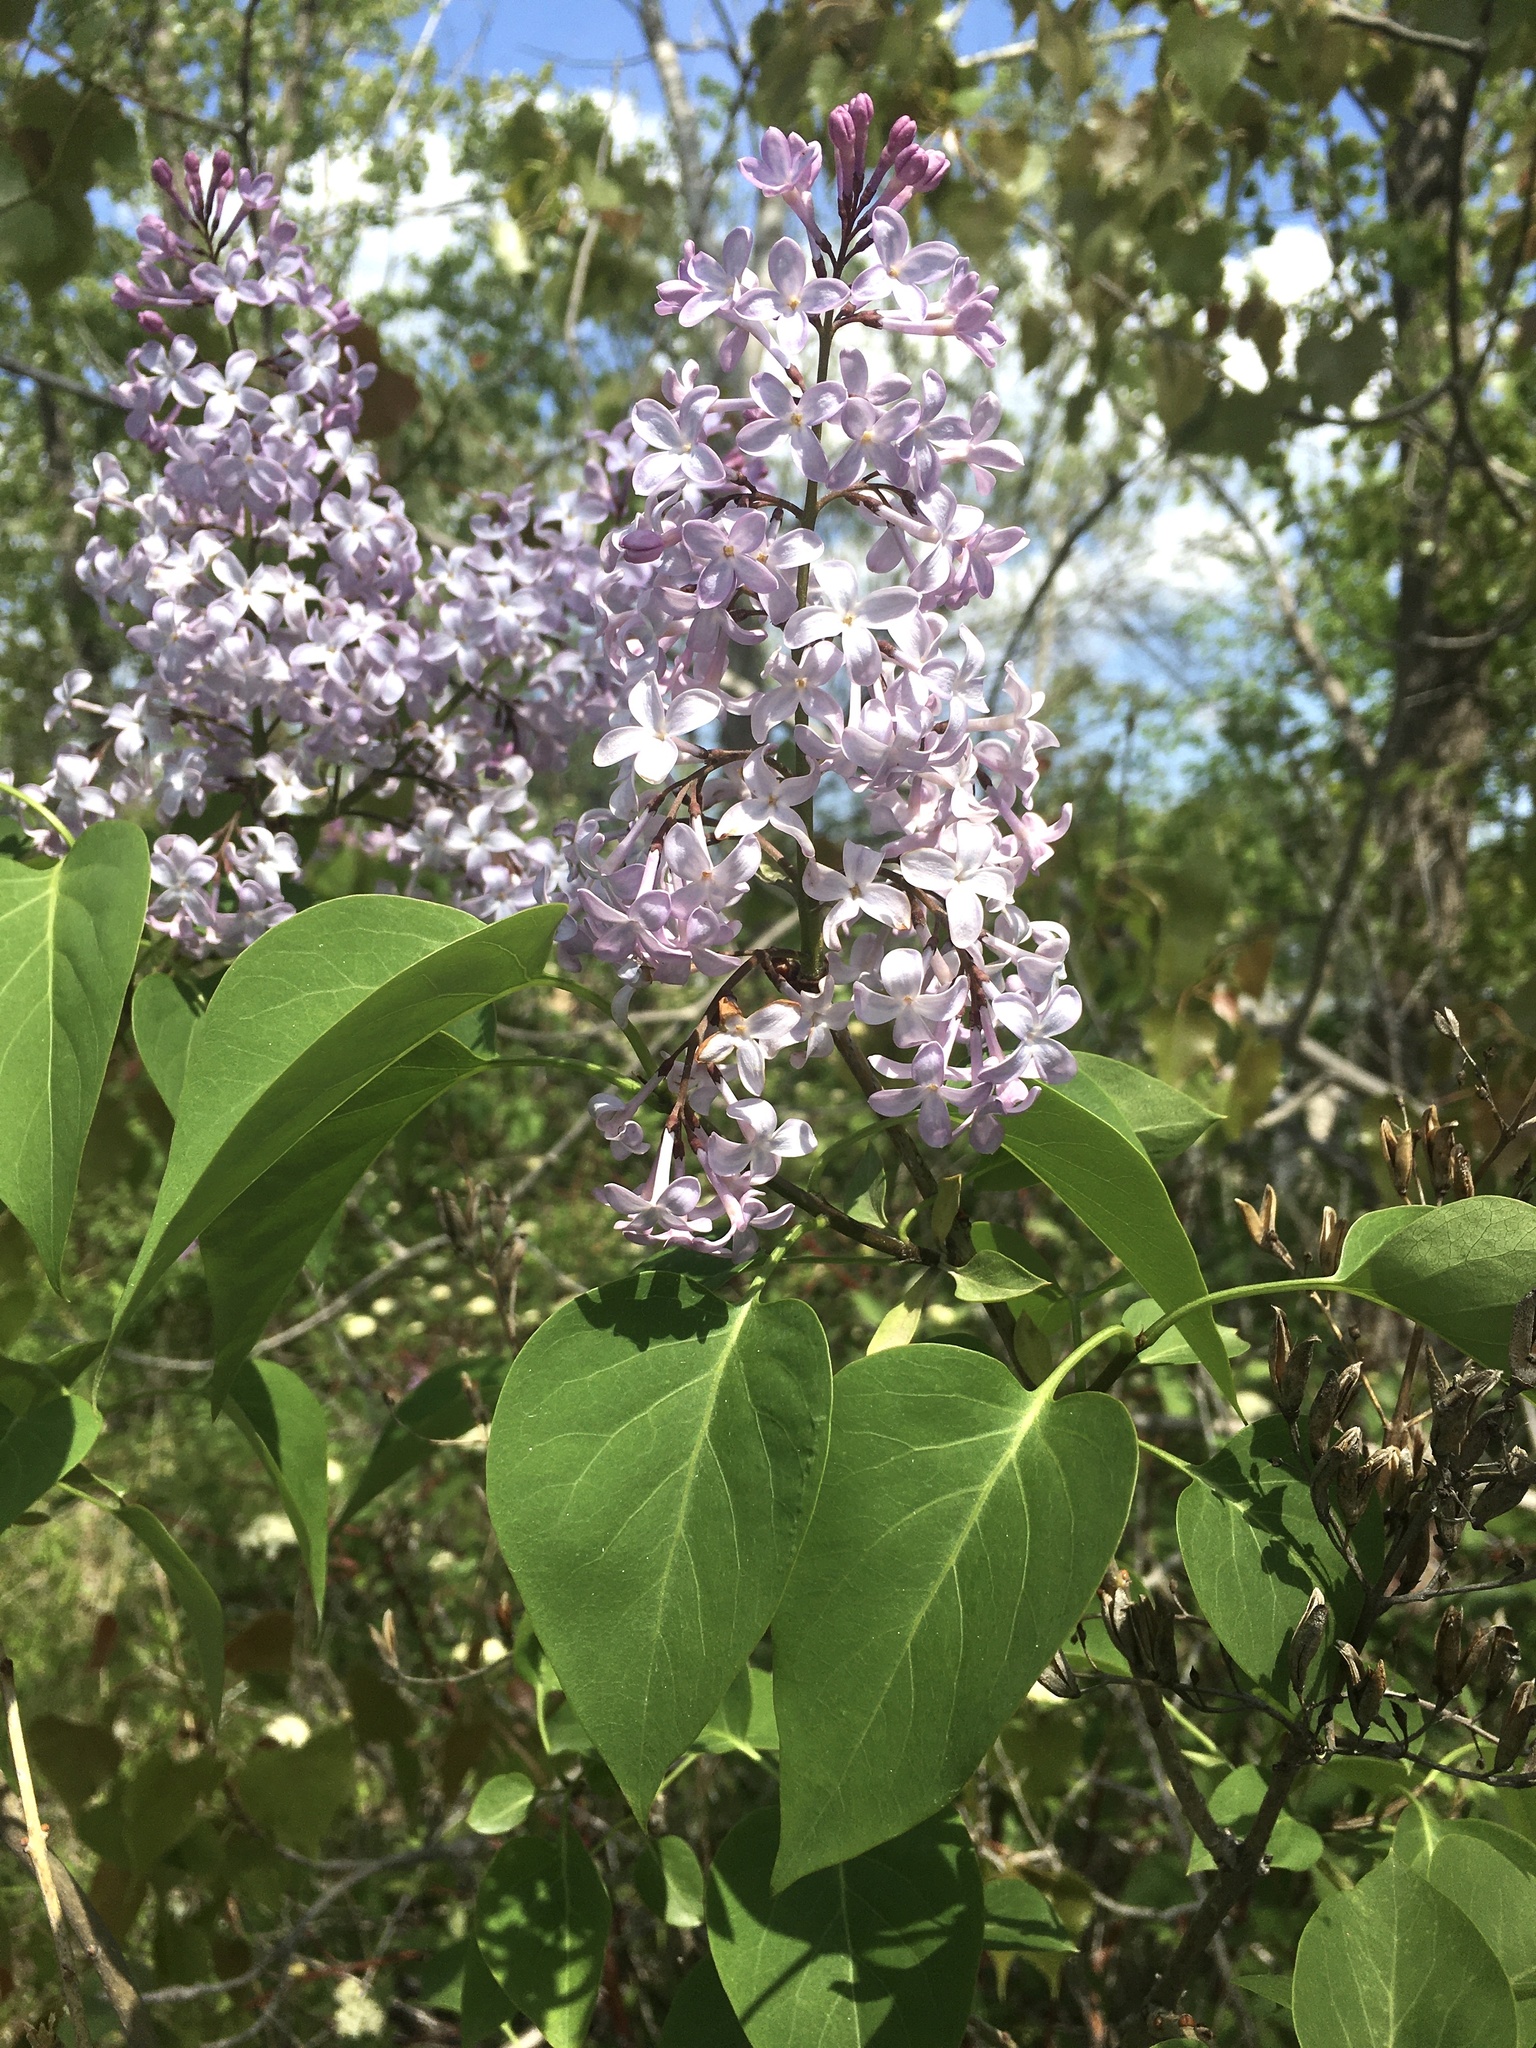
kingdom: Plantae
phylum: Tracheophyta
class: Magnoliopsida
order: Lamiales
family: Oleaceae
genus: Syringa
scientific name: Syringa vulgaris
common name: Common lilac
